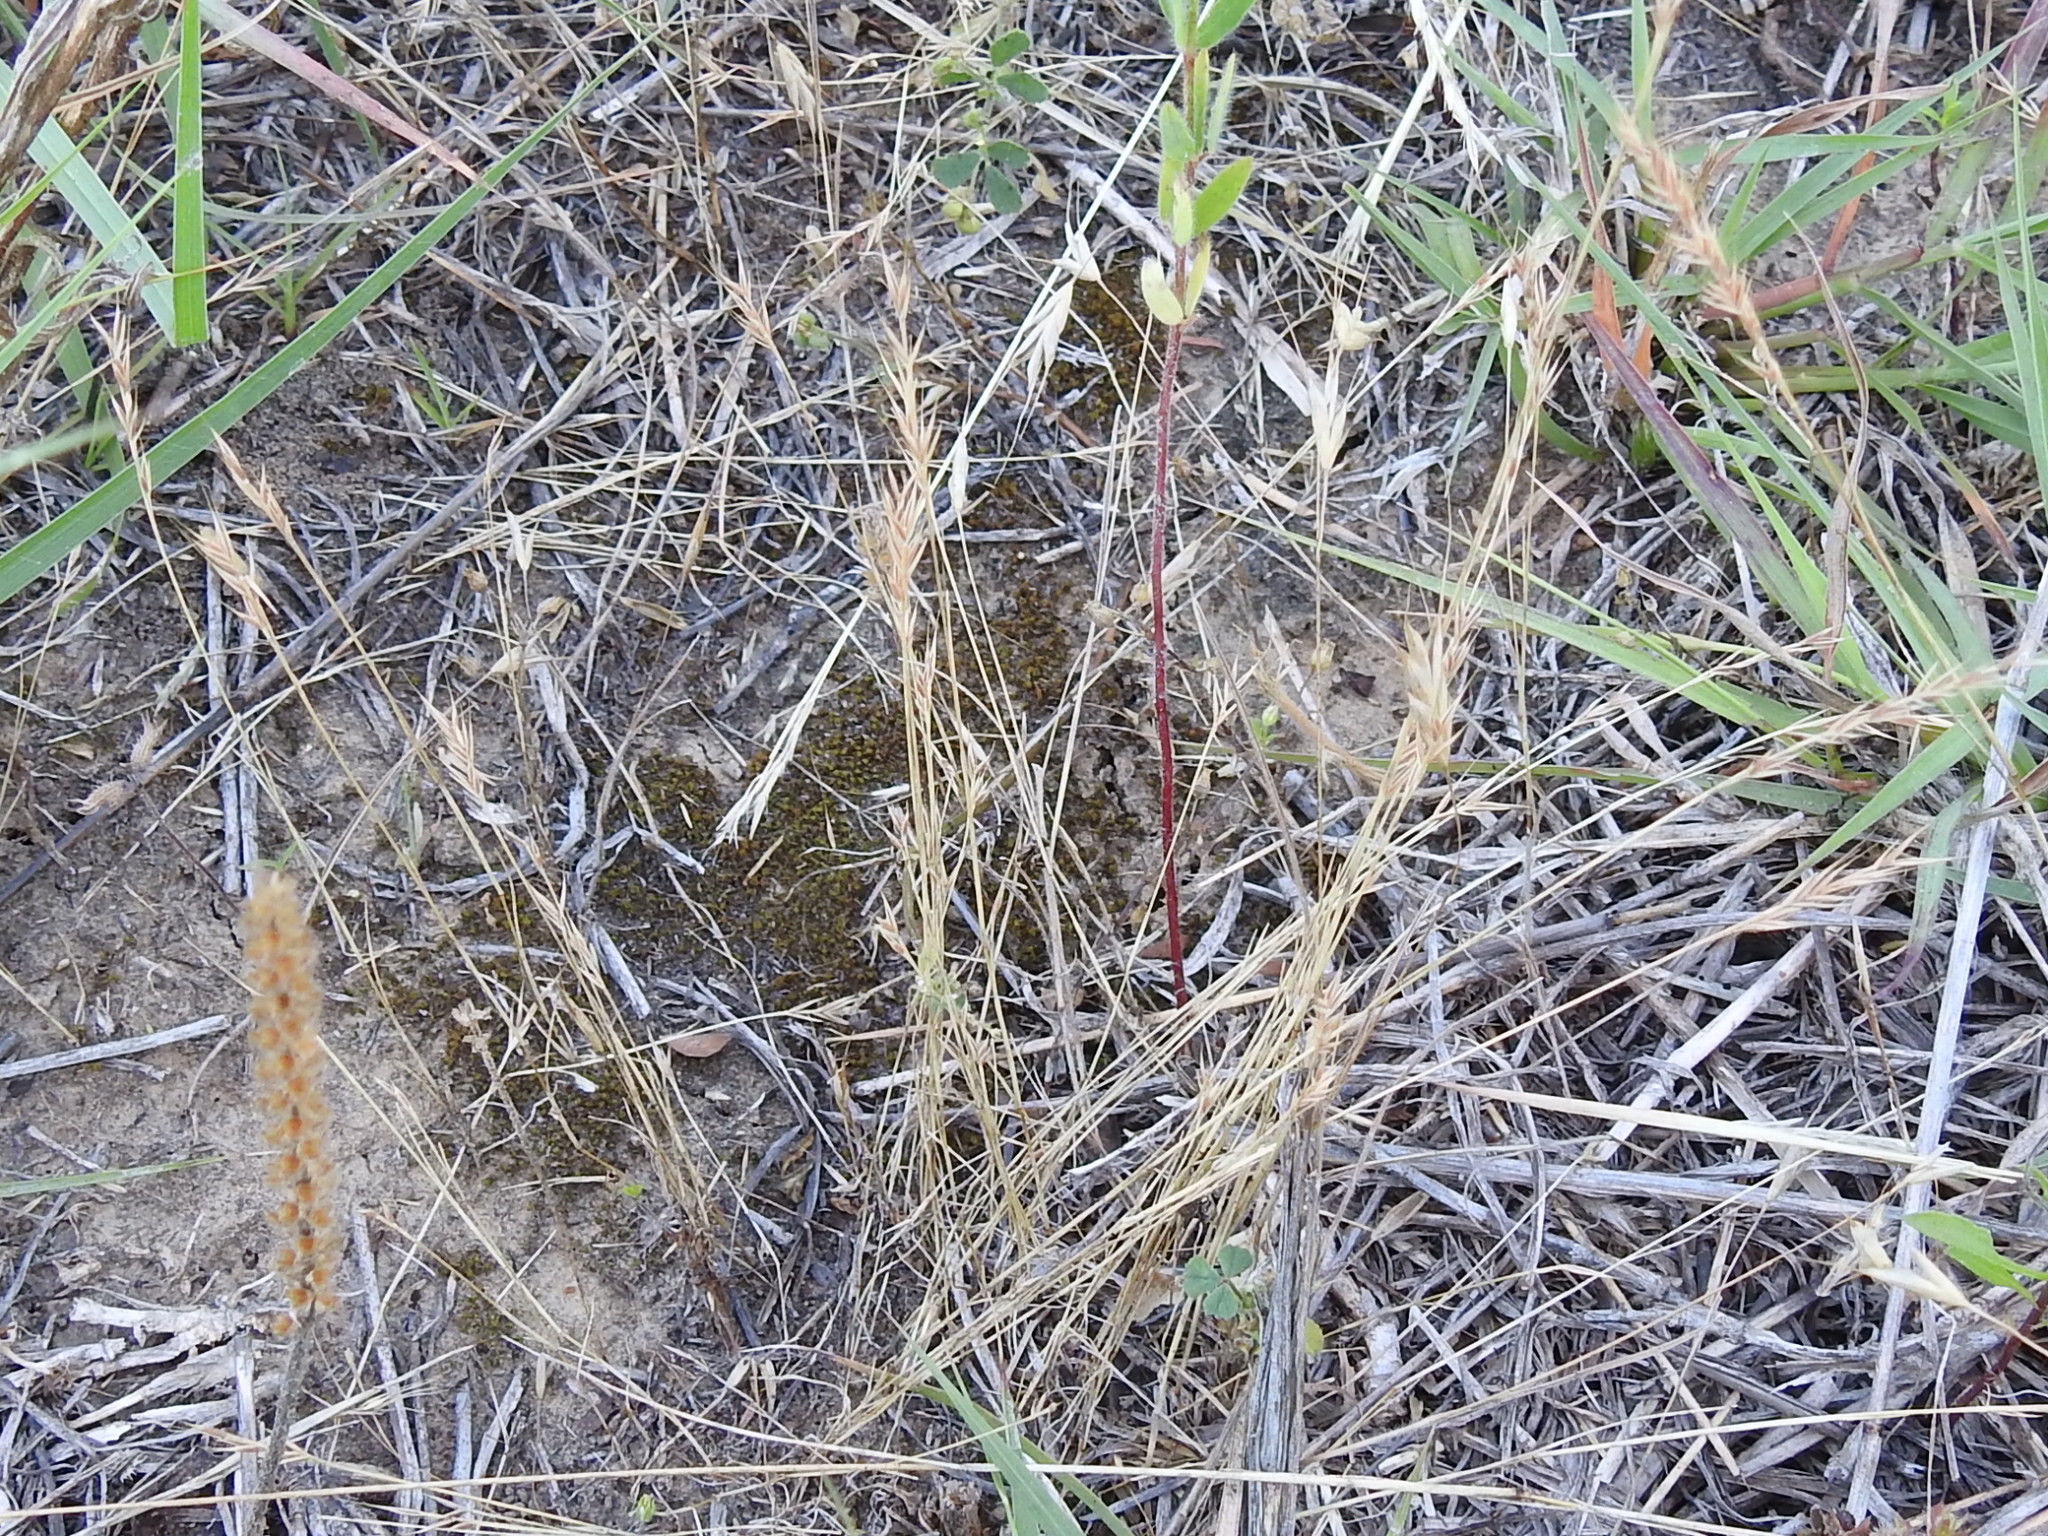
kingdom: Plantae
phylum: Tracheophyta
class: Liliopsida
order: Poales
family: Poaceae
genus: Festuca
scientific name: Festuca octoflora
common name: Sixweeks grass
